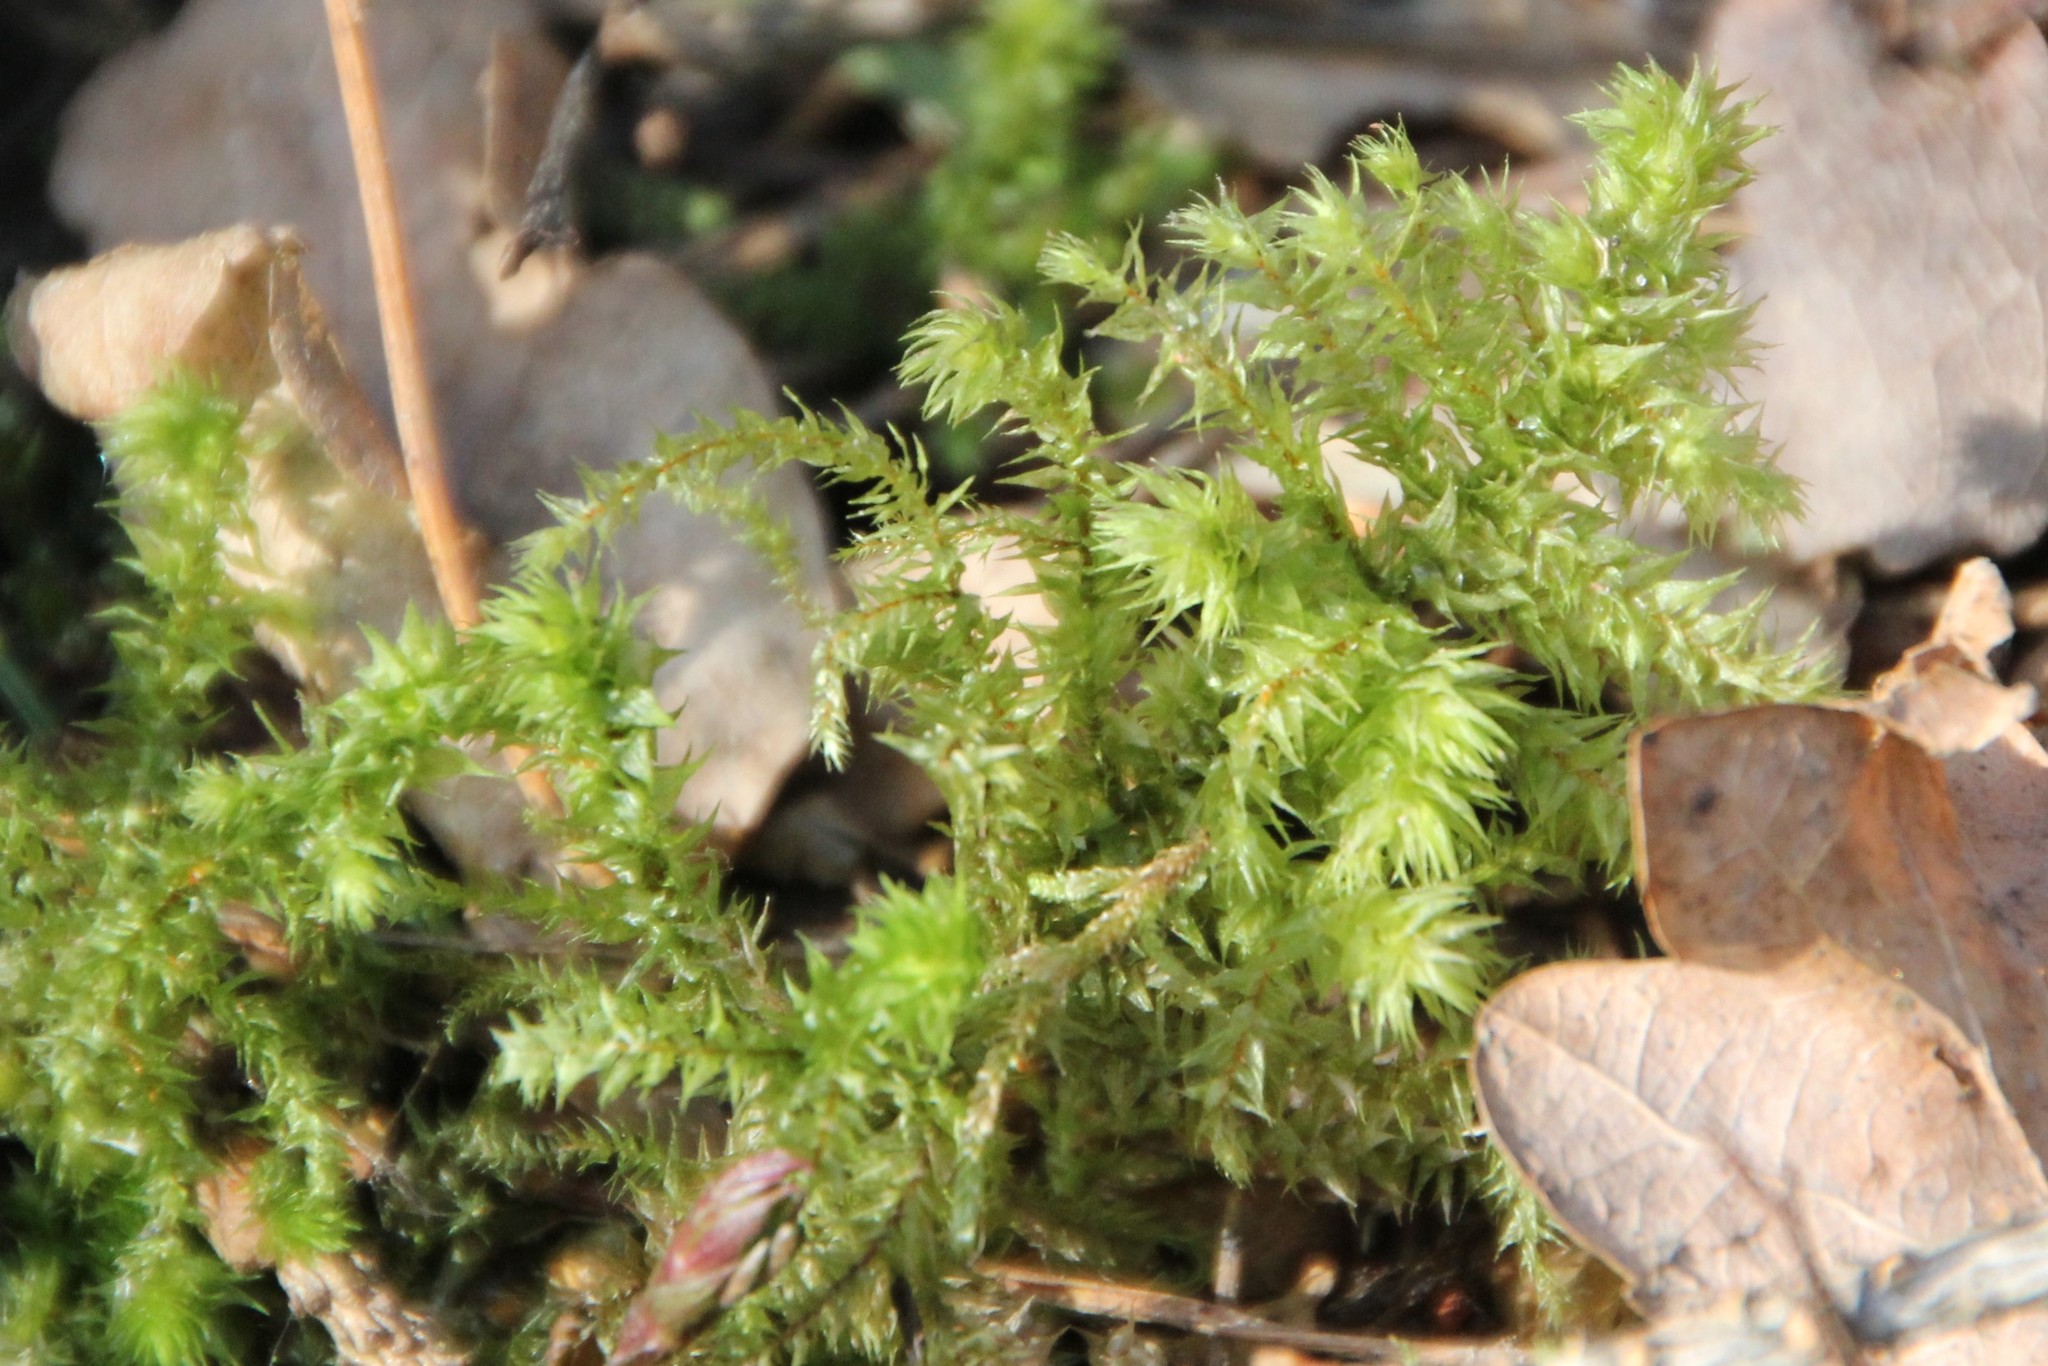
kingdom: Plantae
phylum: Bryophyta
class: Bryopsida
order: Hypnales
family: Hylocomiaceae
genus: Hylocomiadelphus
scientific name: Hylocomiadelphus triquetrus
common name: Rough goose neck moss
